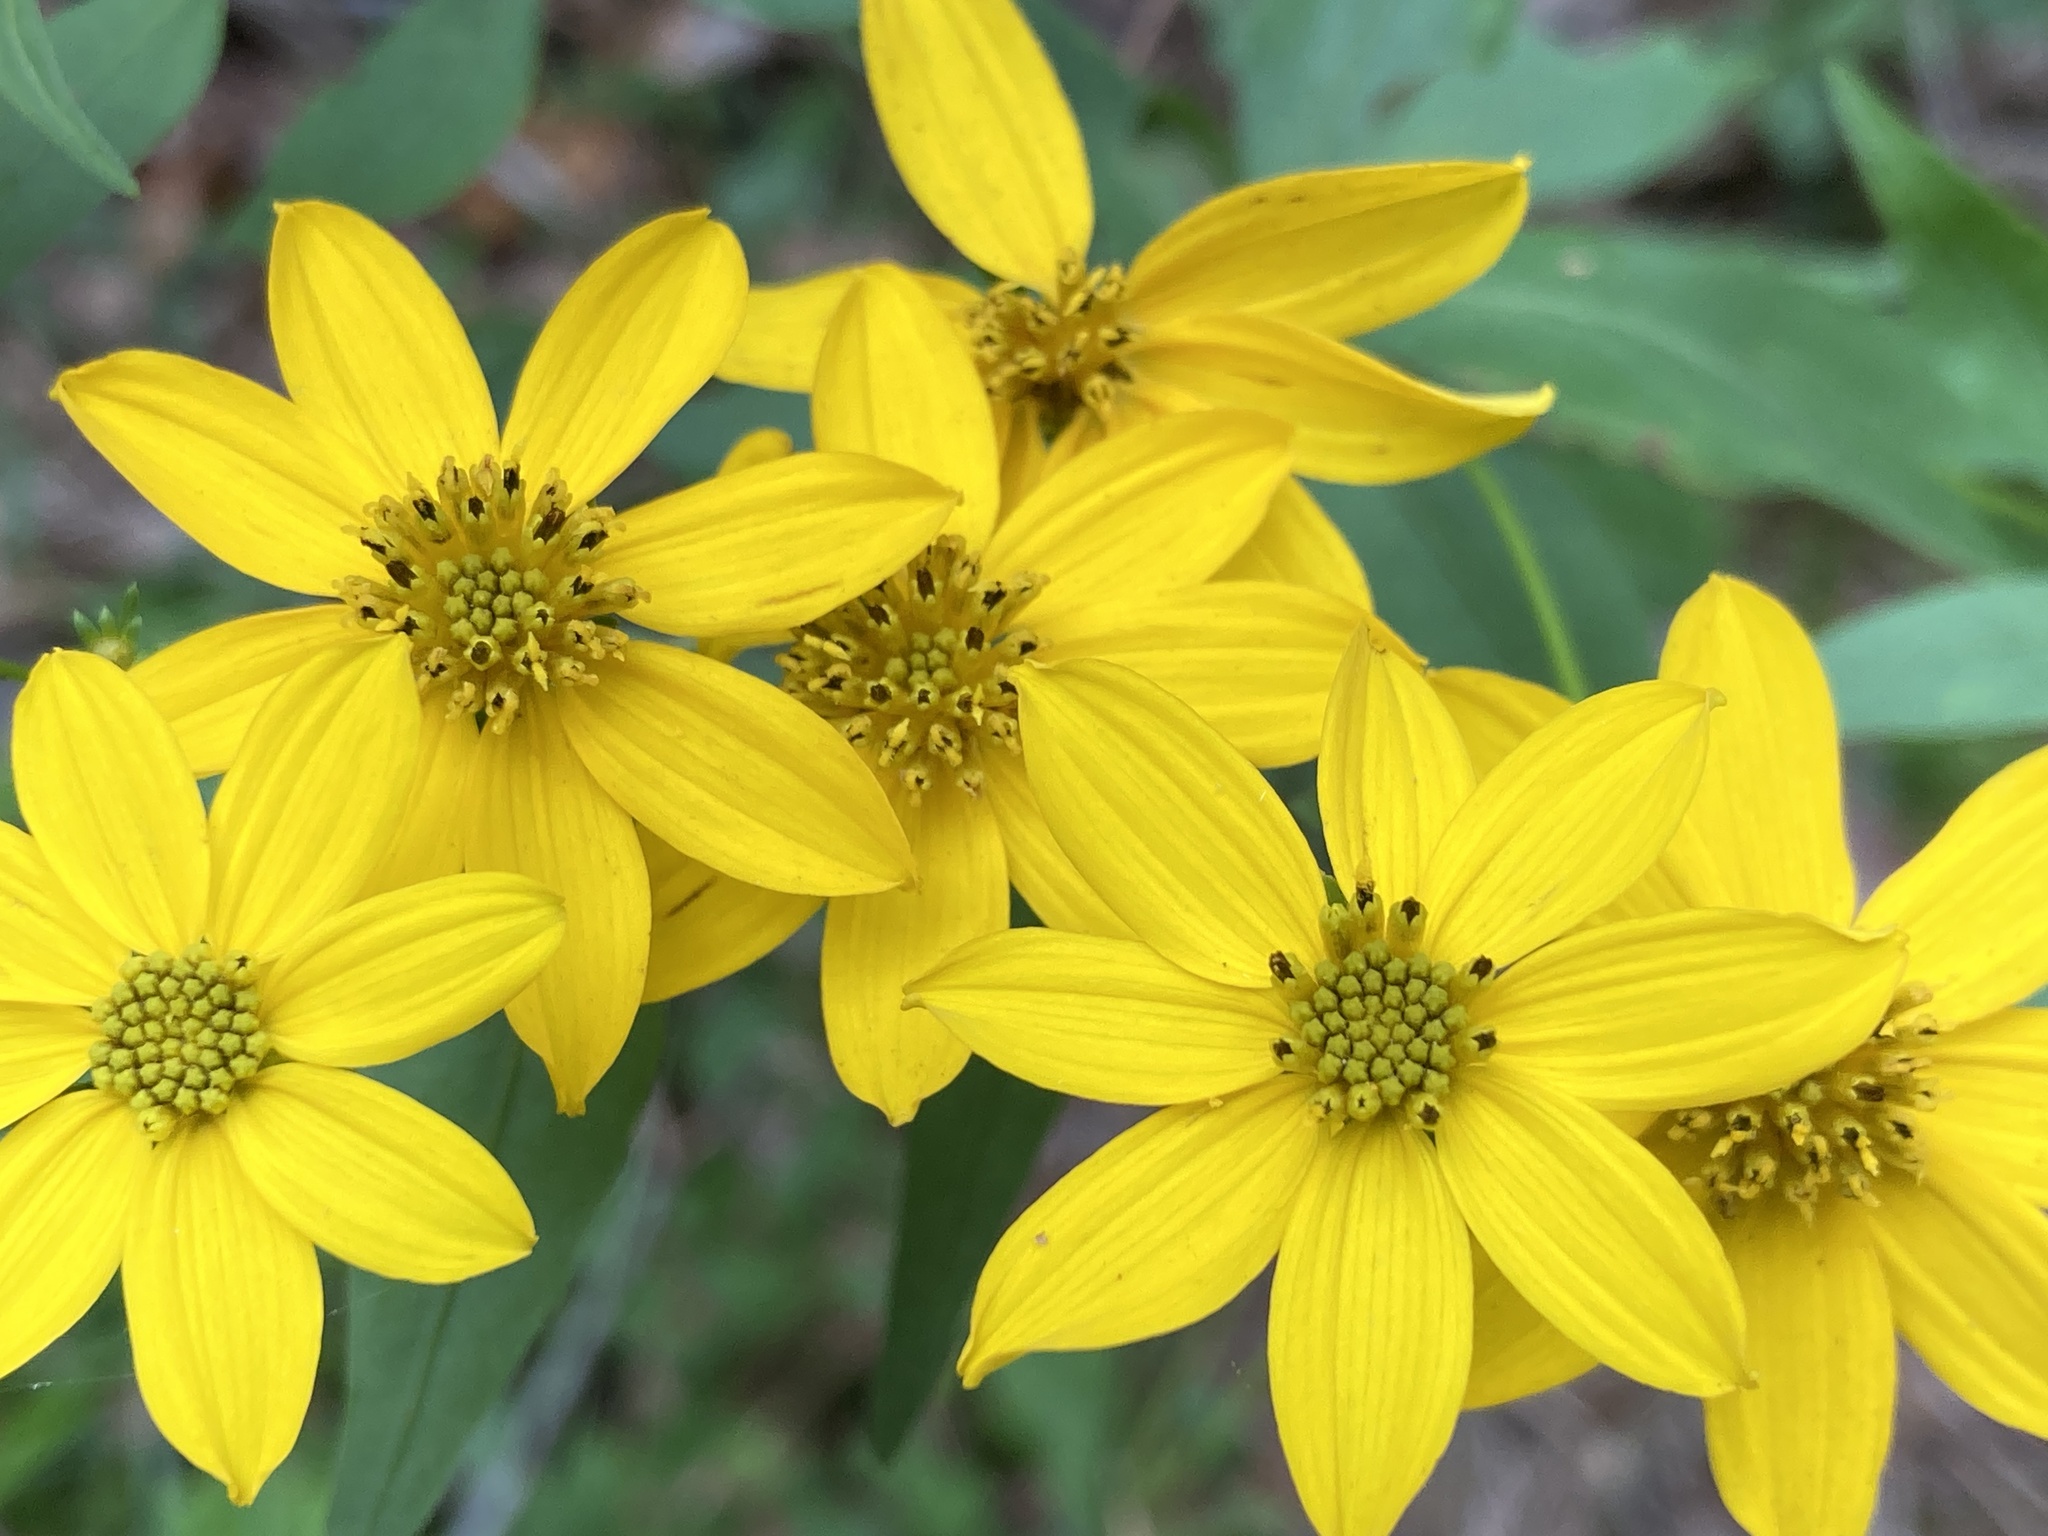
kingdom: Plantae
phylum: Tracheophyta
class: Magnoliopsida
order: Asterales
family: Asteraceae
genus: Coreopsis
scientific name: Coreopsis major
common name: Forest tickseed
